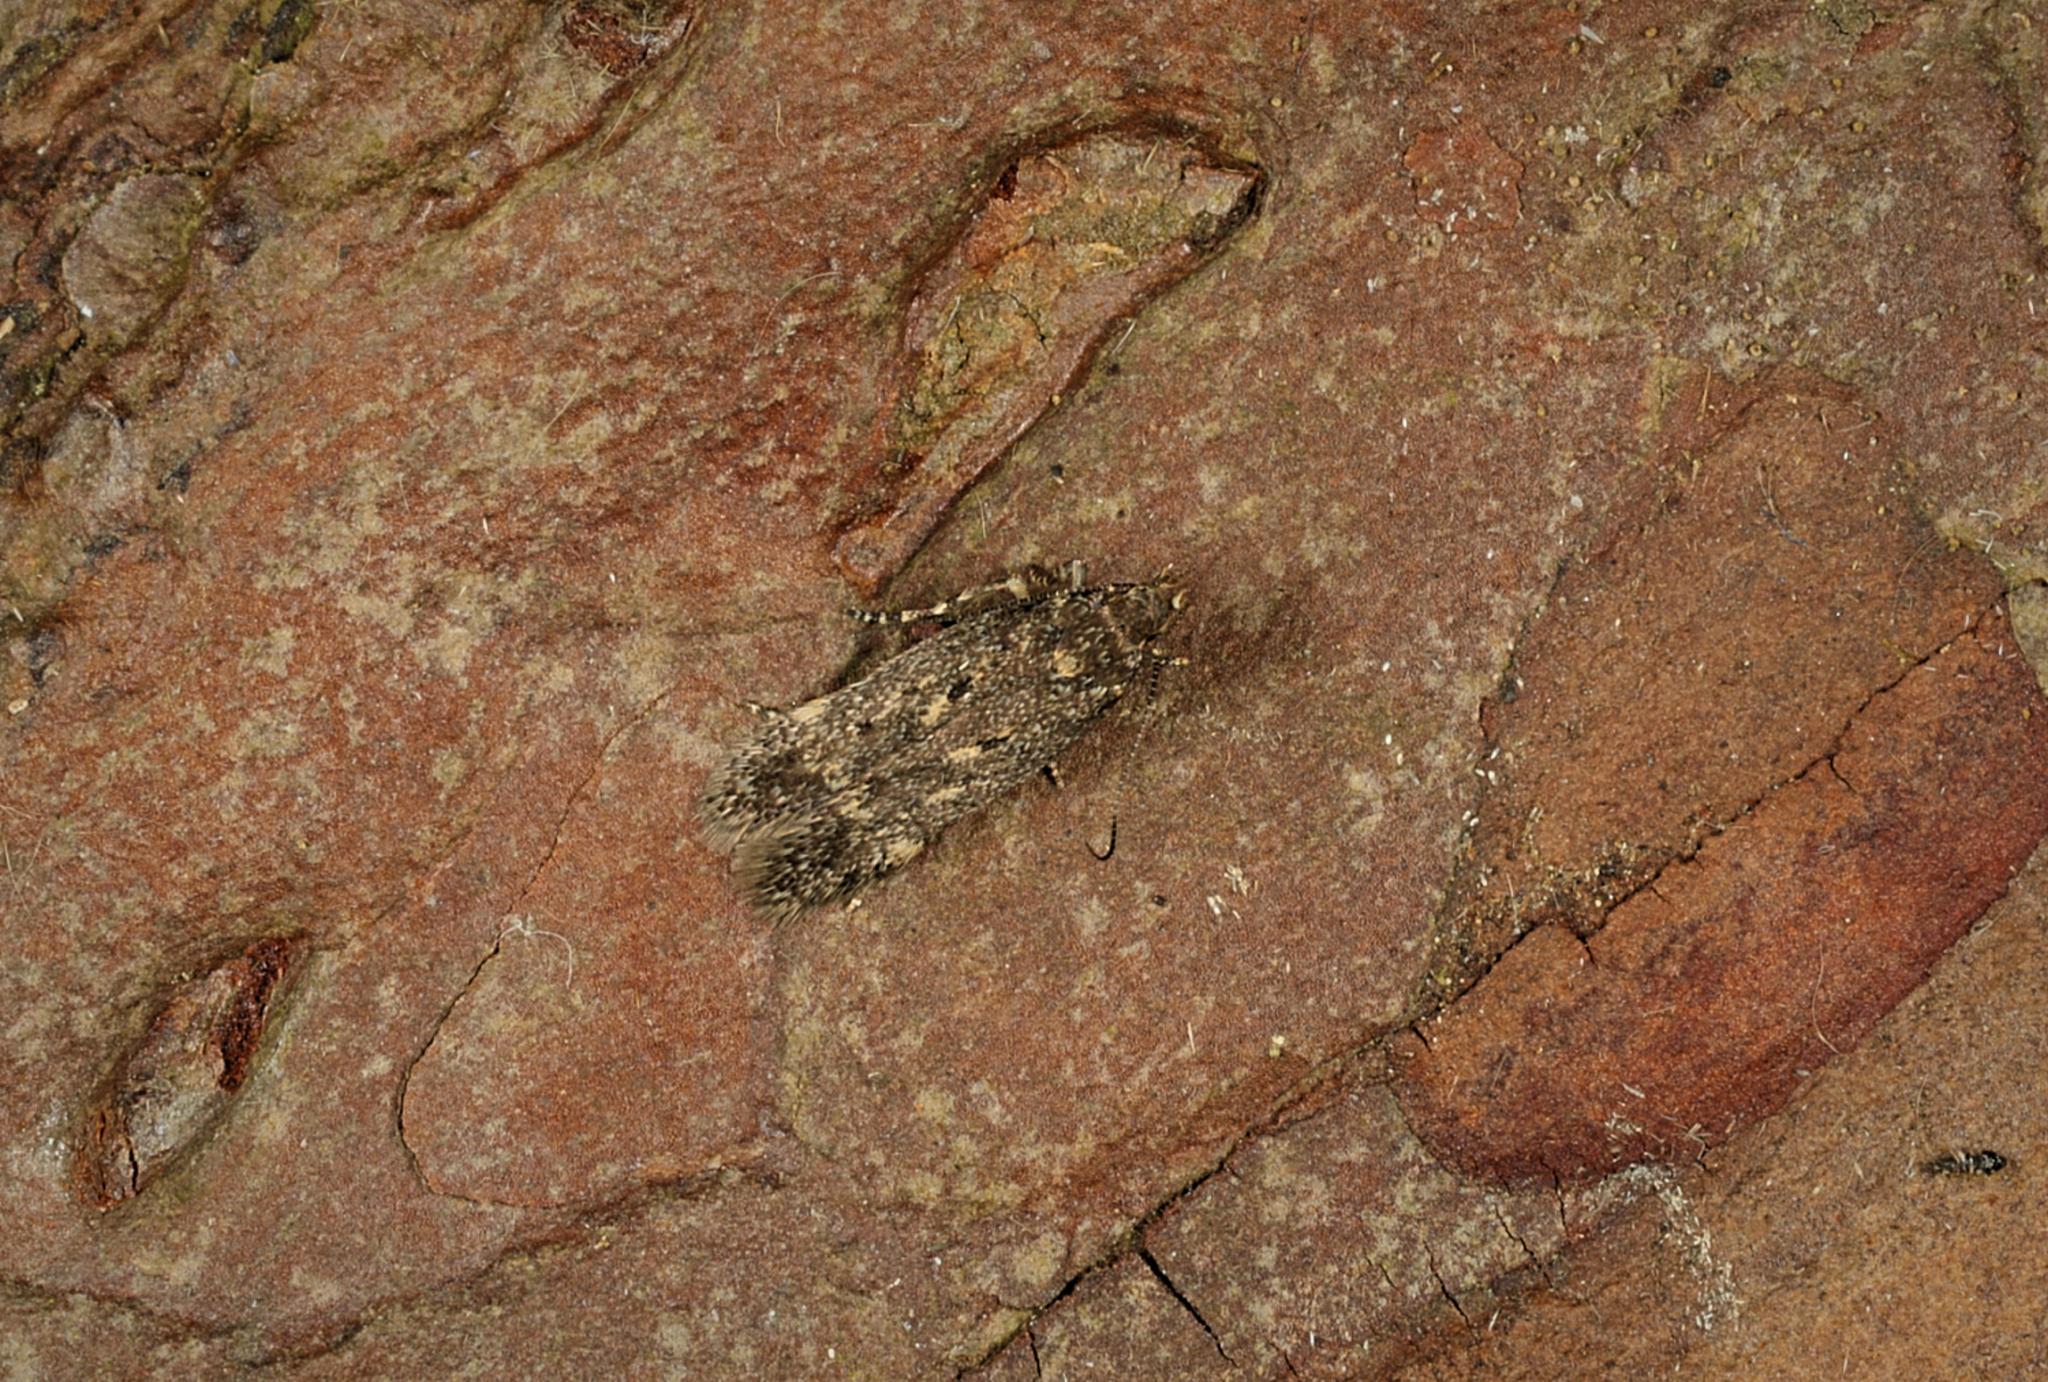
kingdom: Animalia
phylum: Arthropoda
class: Insecta
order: Lepidoptera
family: Gelechiidae
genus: Bryotropha
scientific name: Bryotropha affinis
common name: Dark groundling
